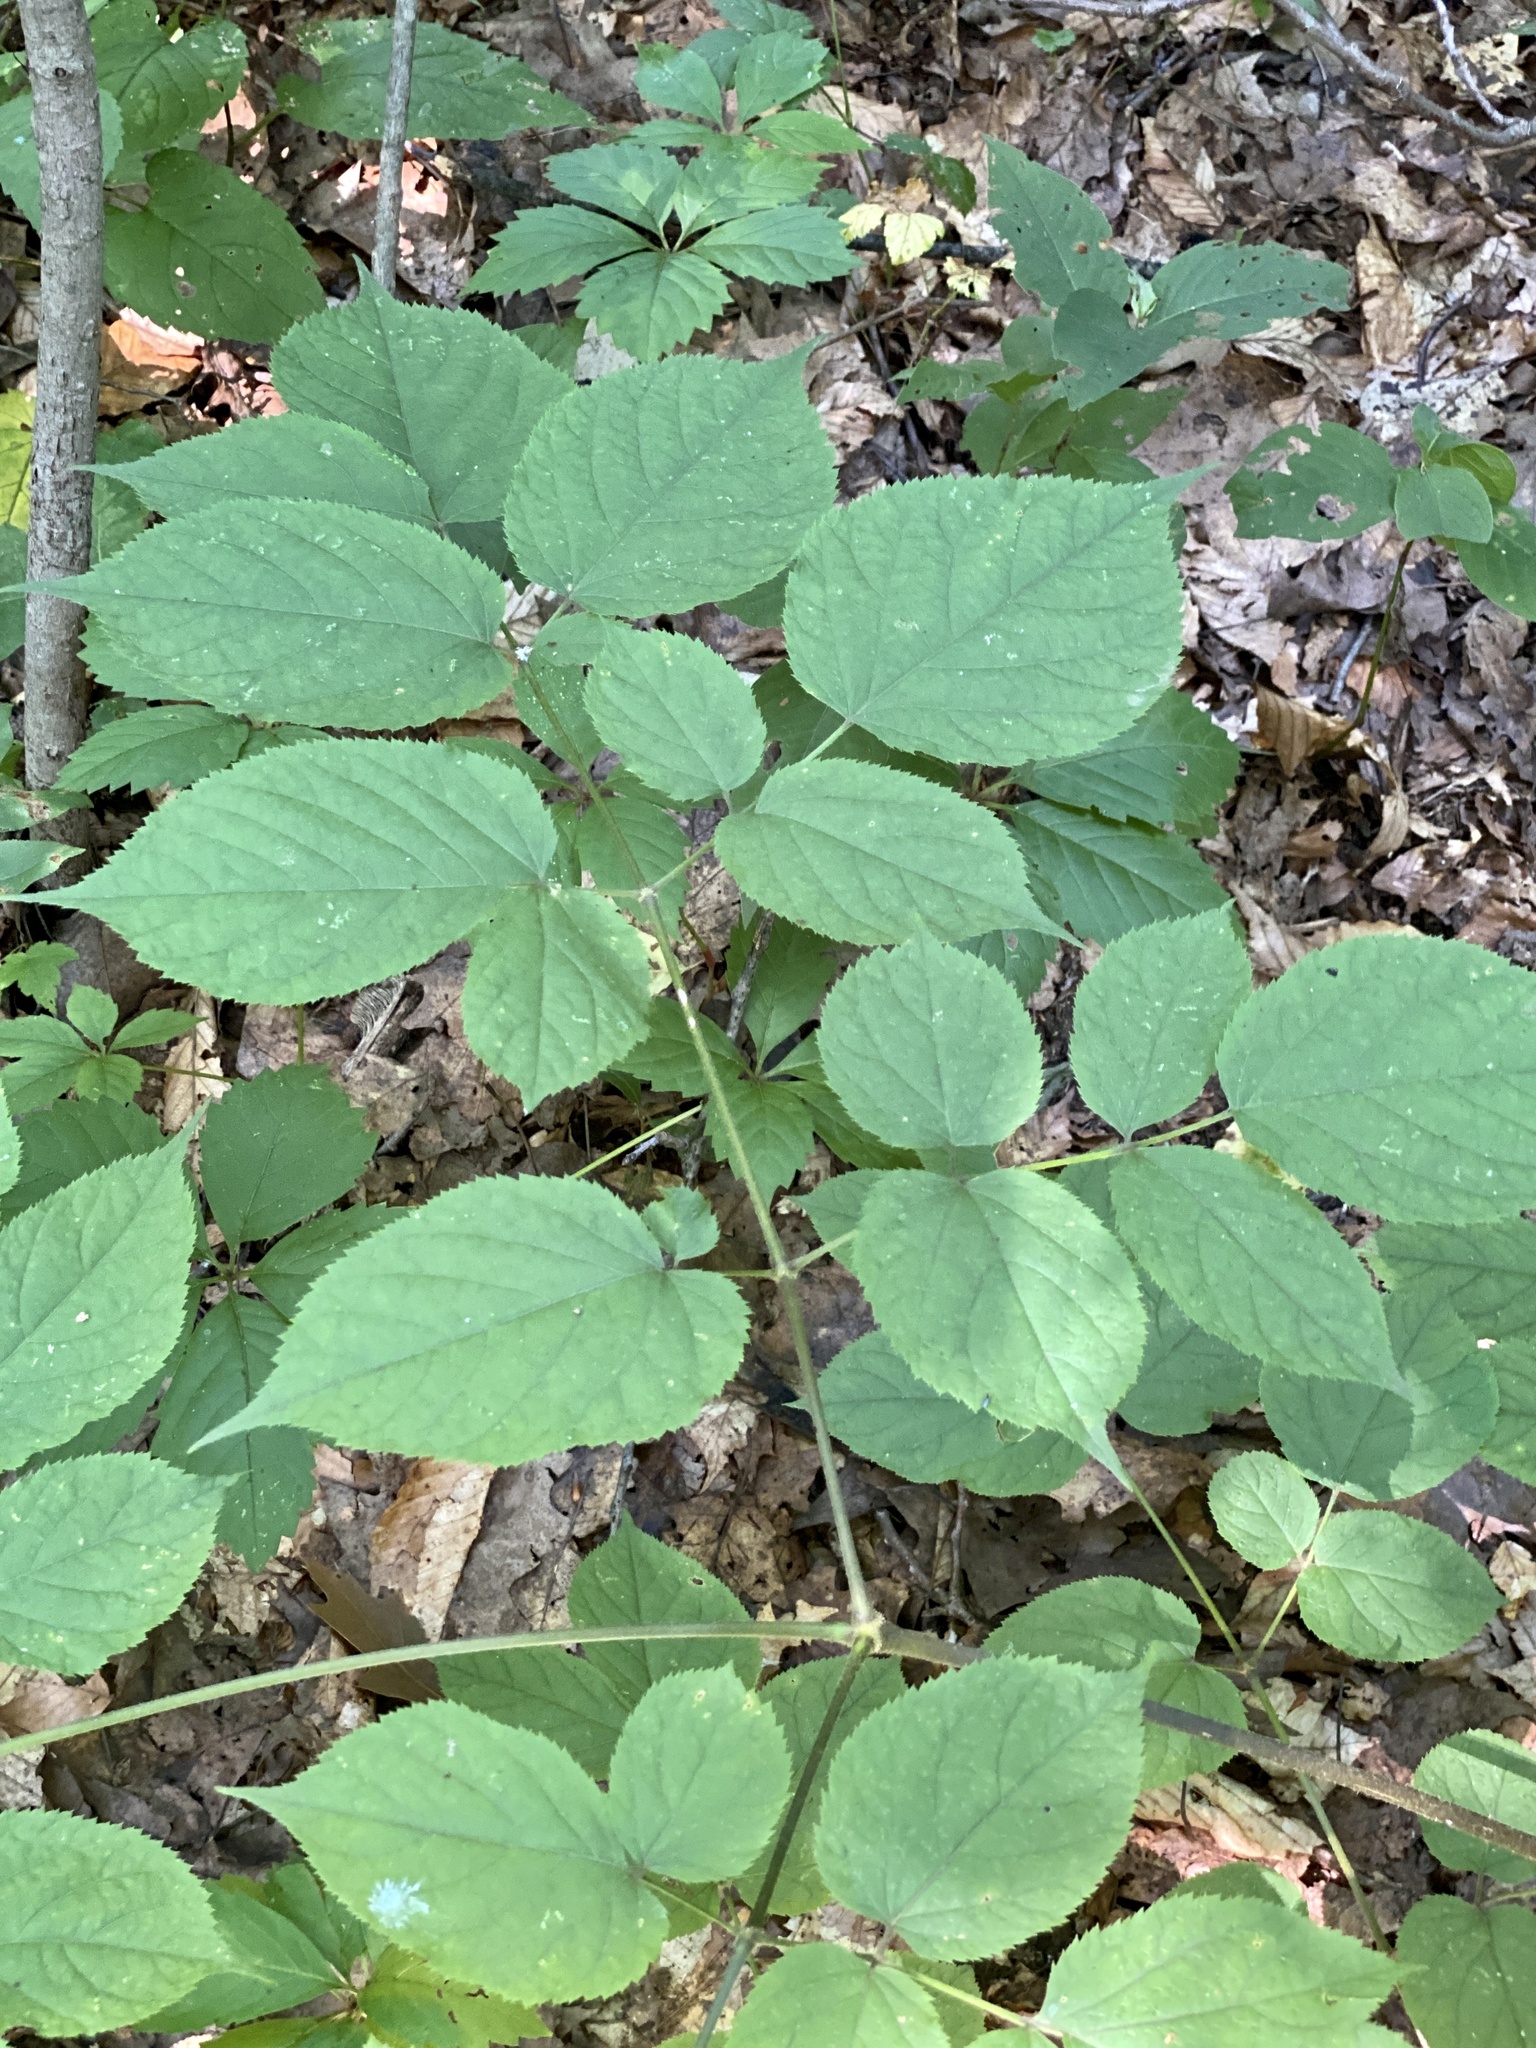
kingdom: Plantae
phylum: Tracheophyta
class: Magnoliopsida
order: Apiales
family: Araliaceae
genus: Aralia
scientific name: Aralia racemosa
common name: American-spikenard
